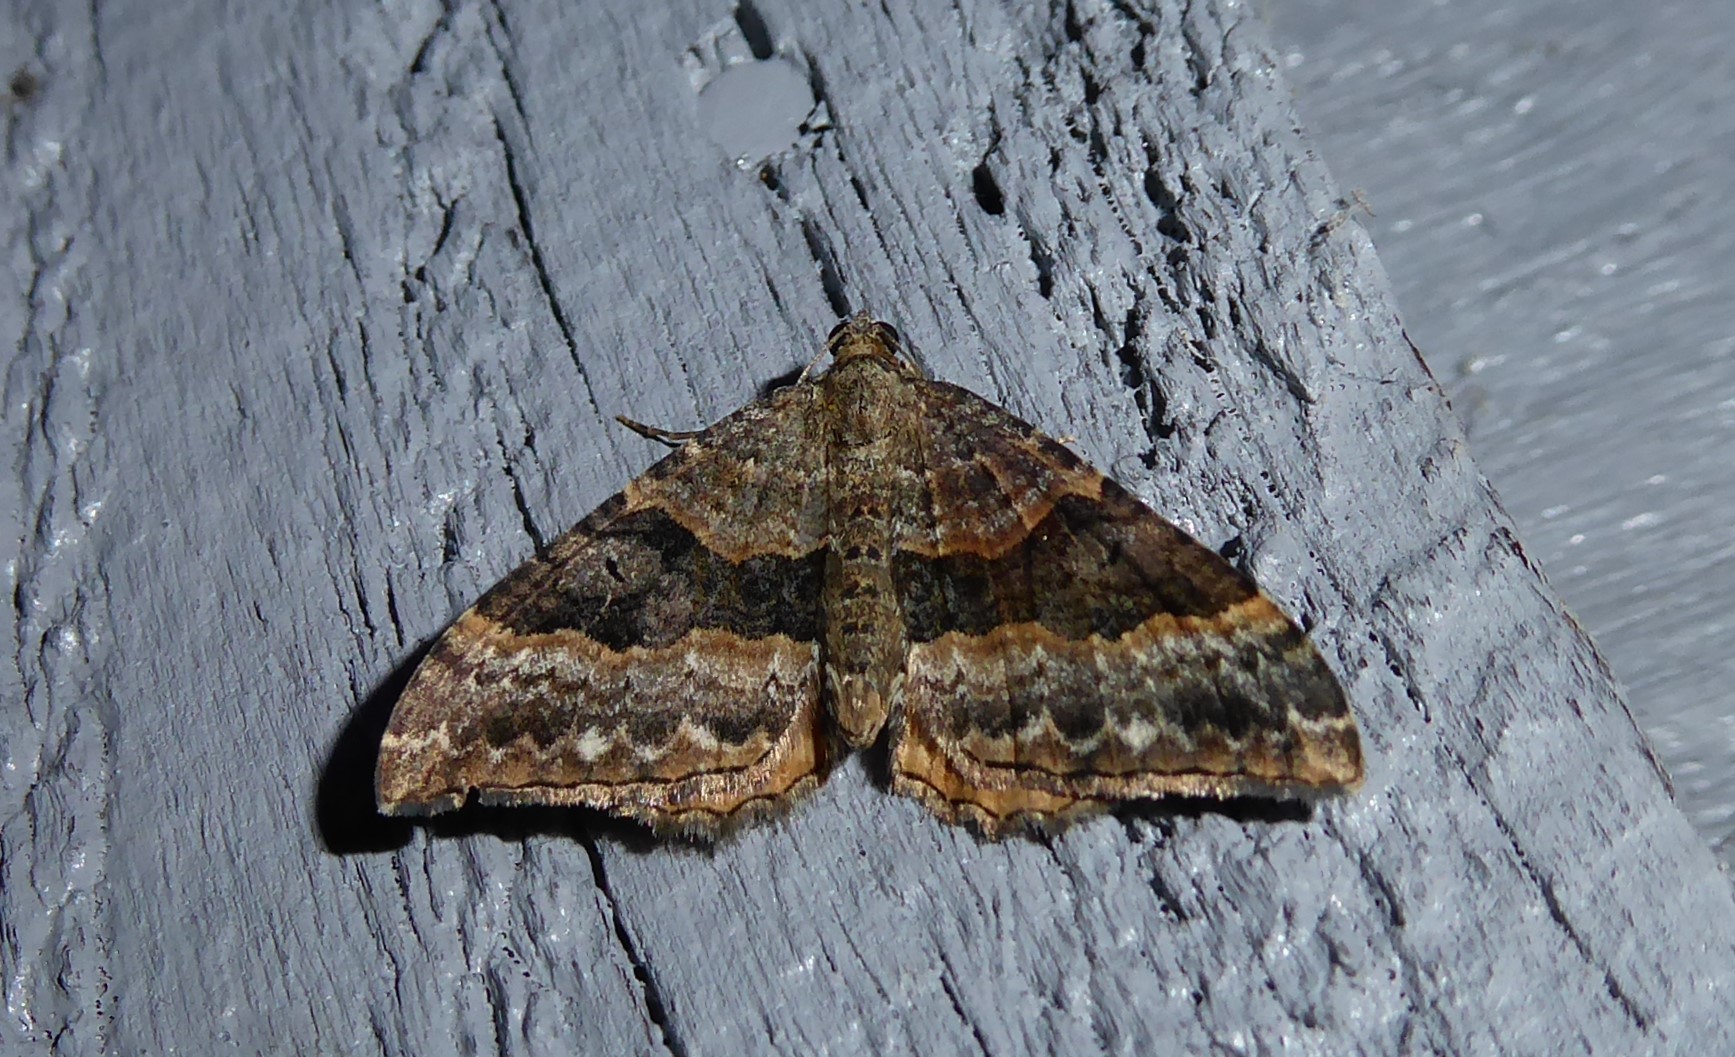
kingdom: Animalia
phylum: Arthropoda
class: Insecta
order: Lepidoptera
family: Geometridae
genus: Hydriomena
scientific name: Hydriomena deltoidata
